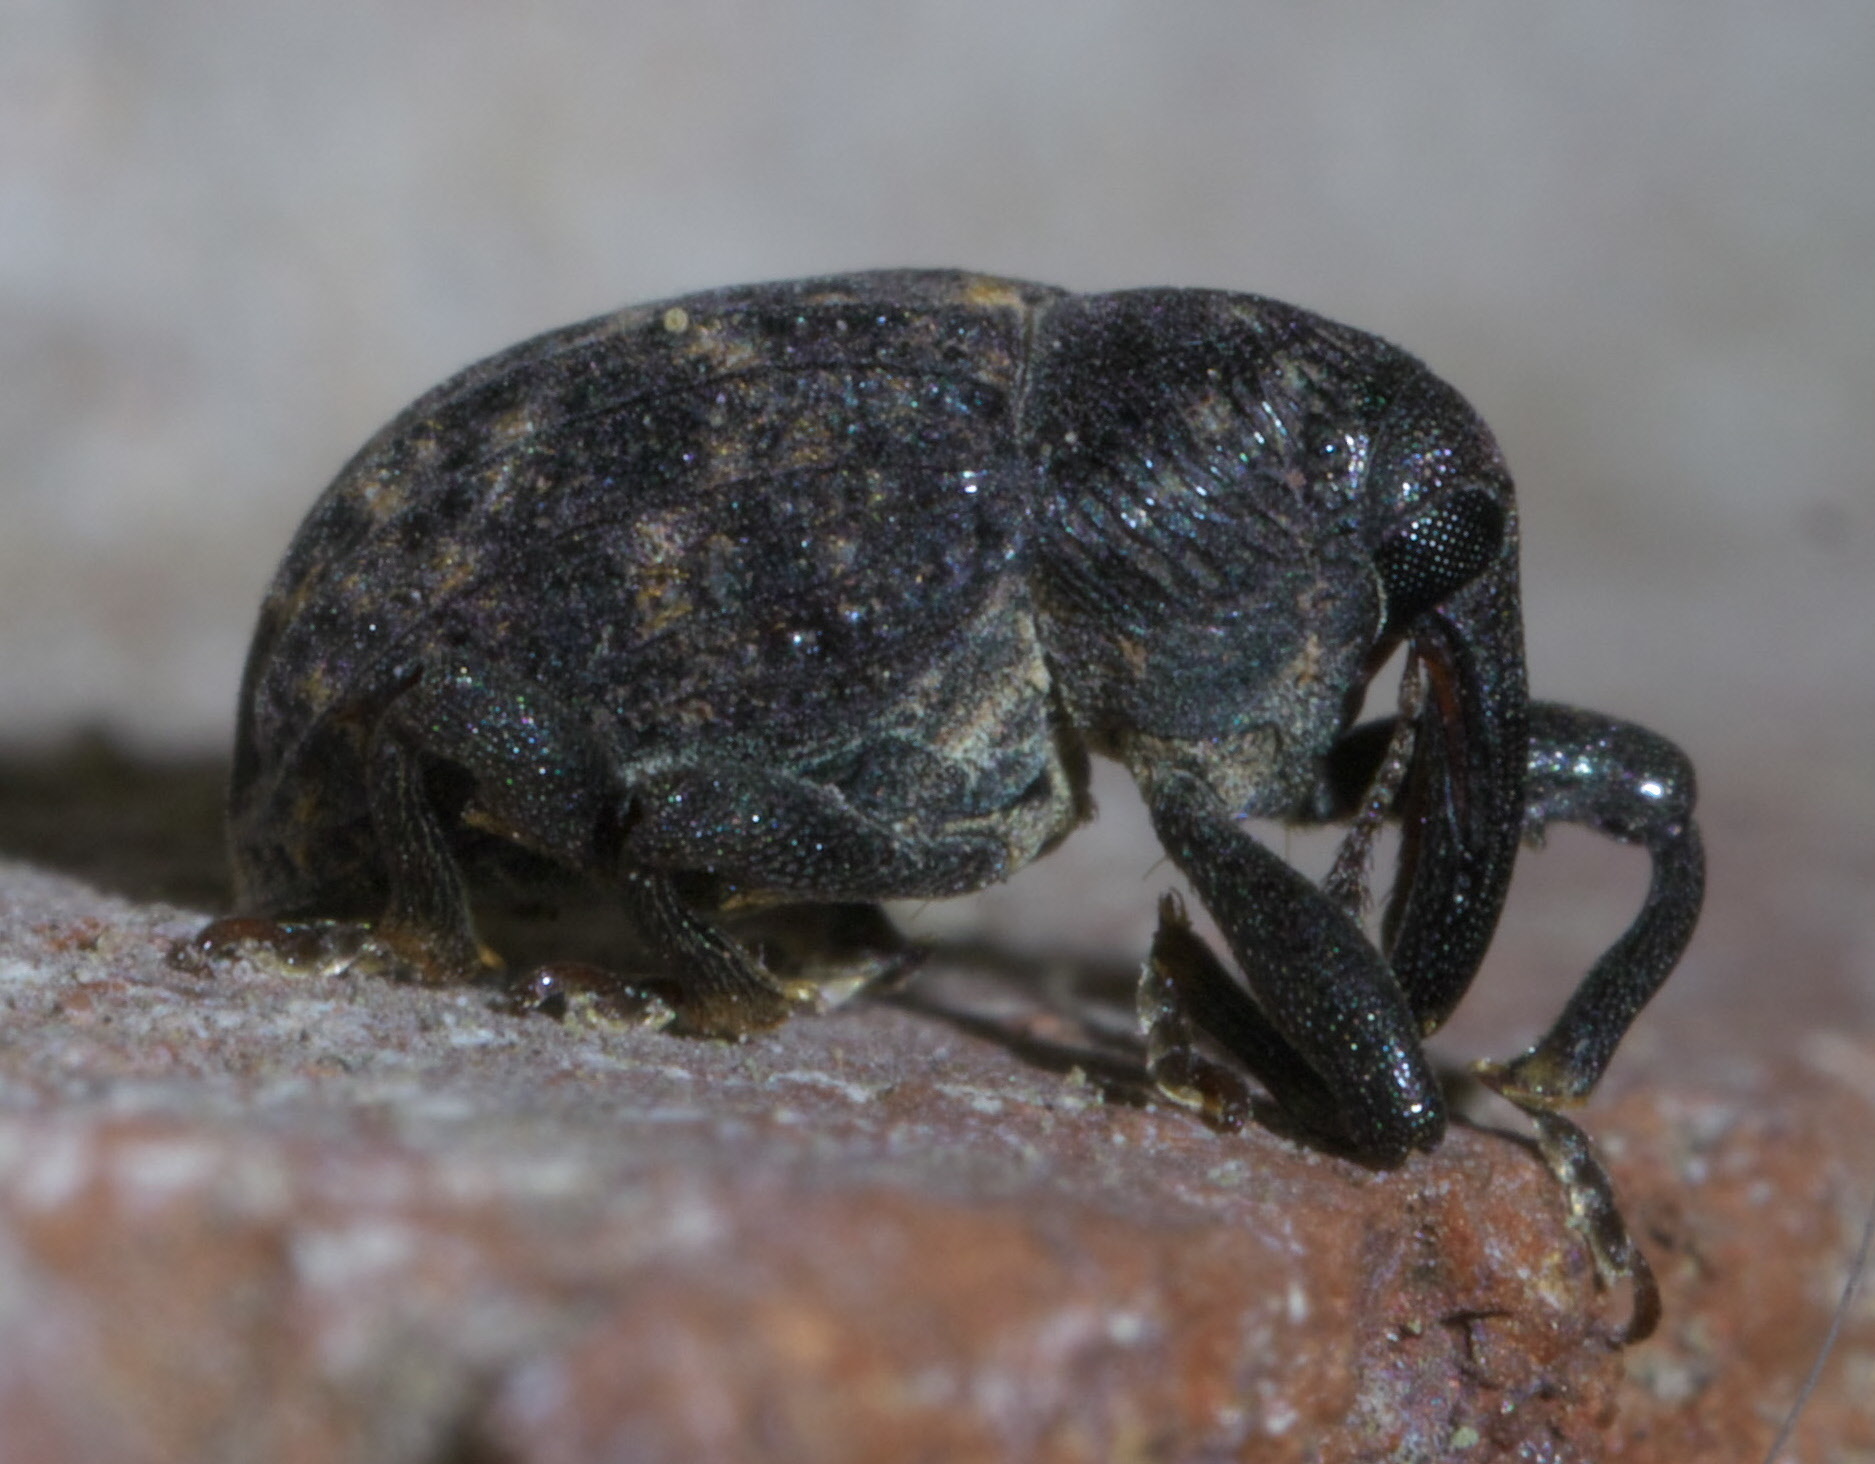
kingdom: Animalia
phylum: Arthropoda
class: Insecta
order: Coleoptera
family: Curculionidae
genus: Rhyssomatus
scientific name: Rhyssomatus palmacollis
